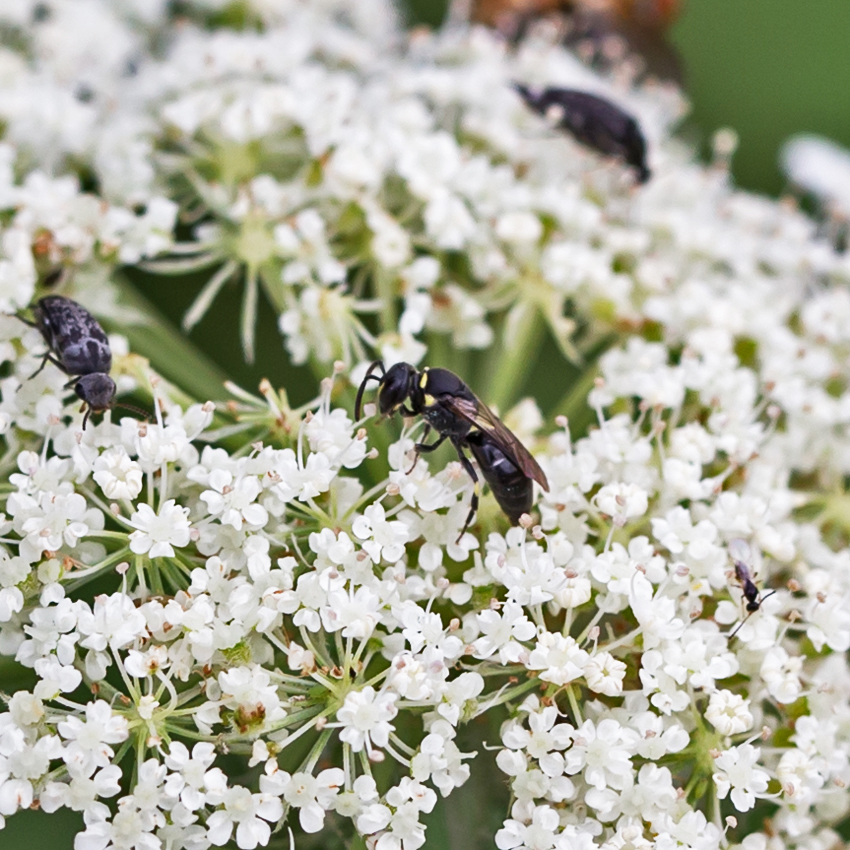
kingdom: Animalia
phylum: Arthropoda
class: Insecta
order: Hymenoptera
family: Colletidae
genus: Hylaeus
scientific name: Hylaeus modestus
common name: Yellow-faced bee
